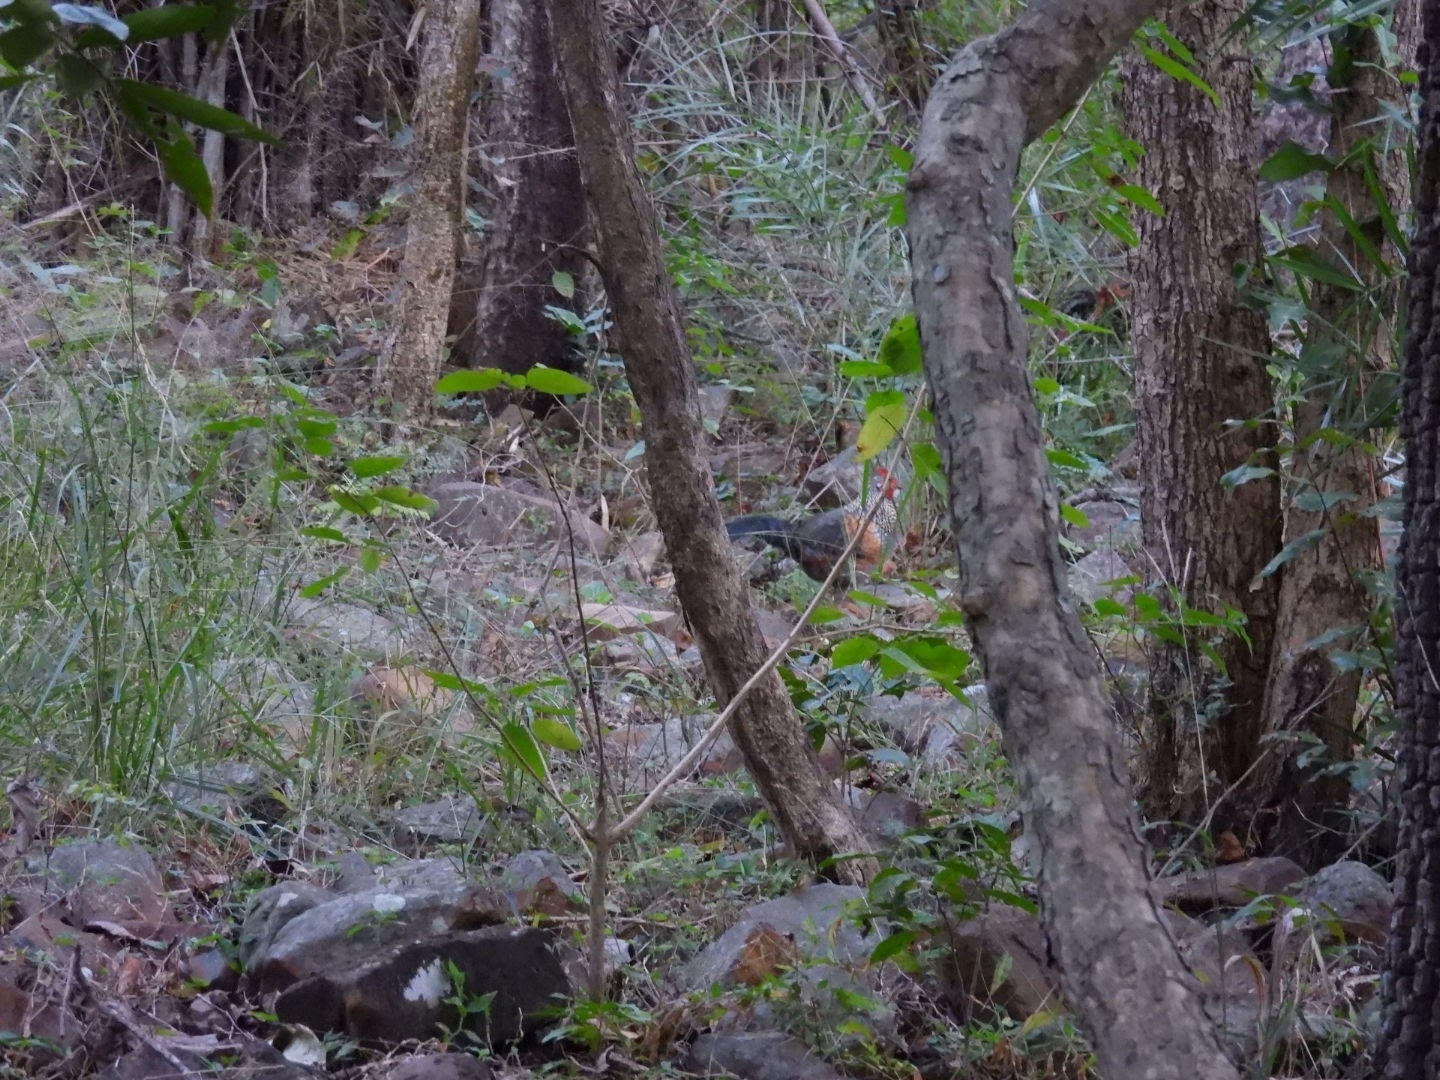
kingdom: Animalia
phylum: Chordata
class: Aves
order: Galliformes
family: Phasianidae
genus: Gallus
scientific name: Gallus sonneratii
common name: Grey junglefowl
